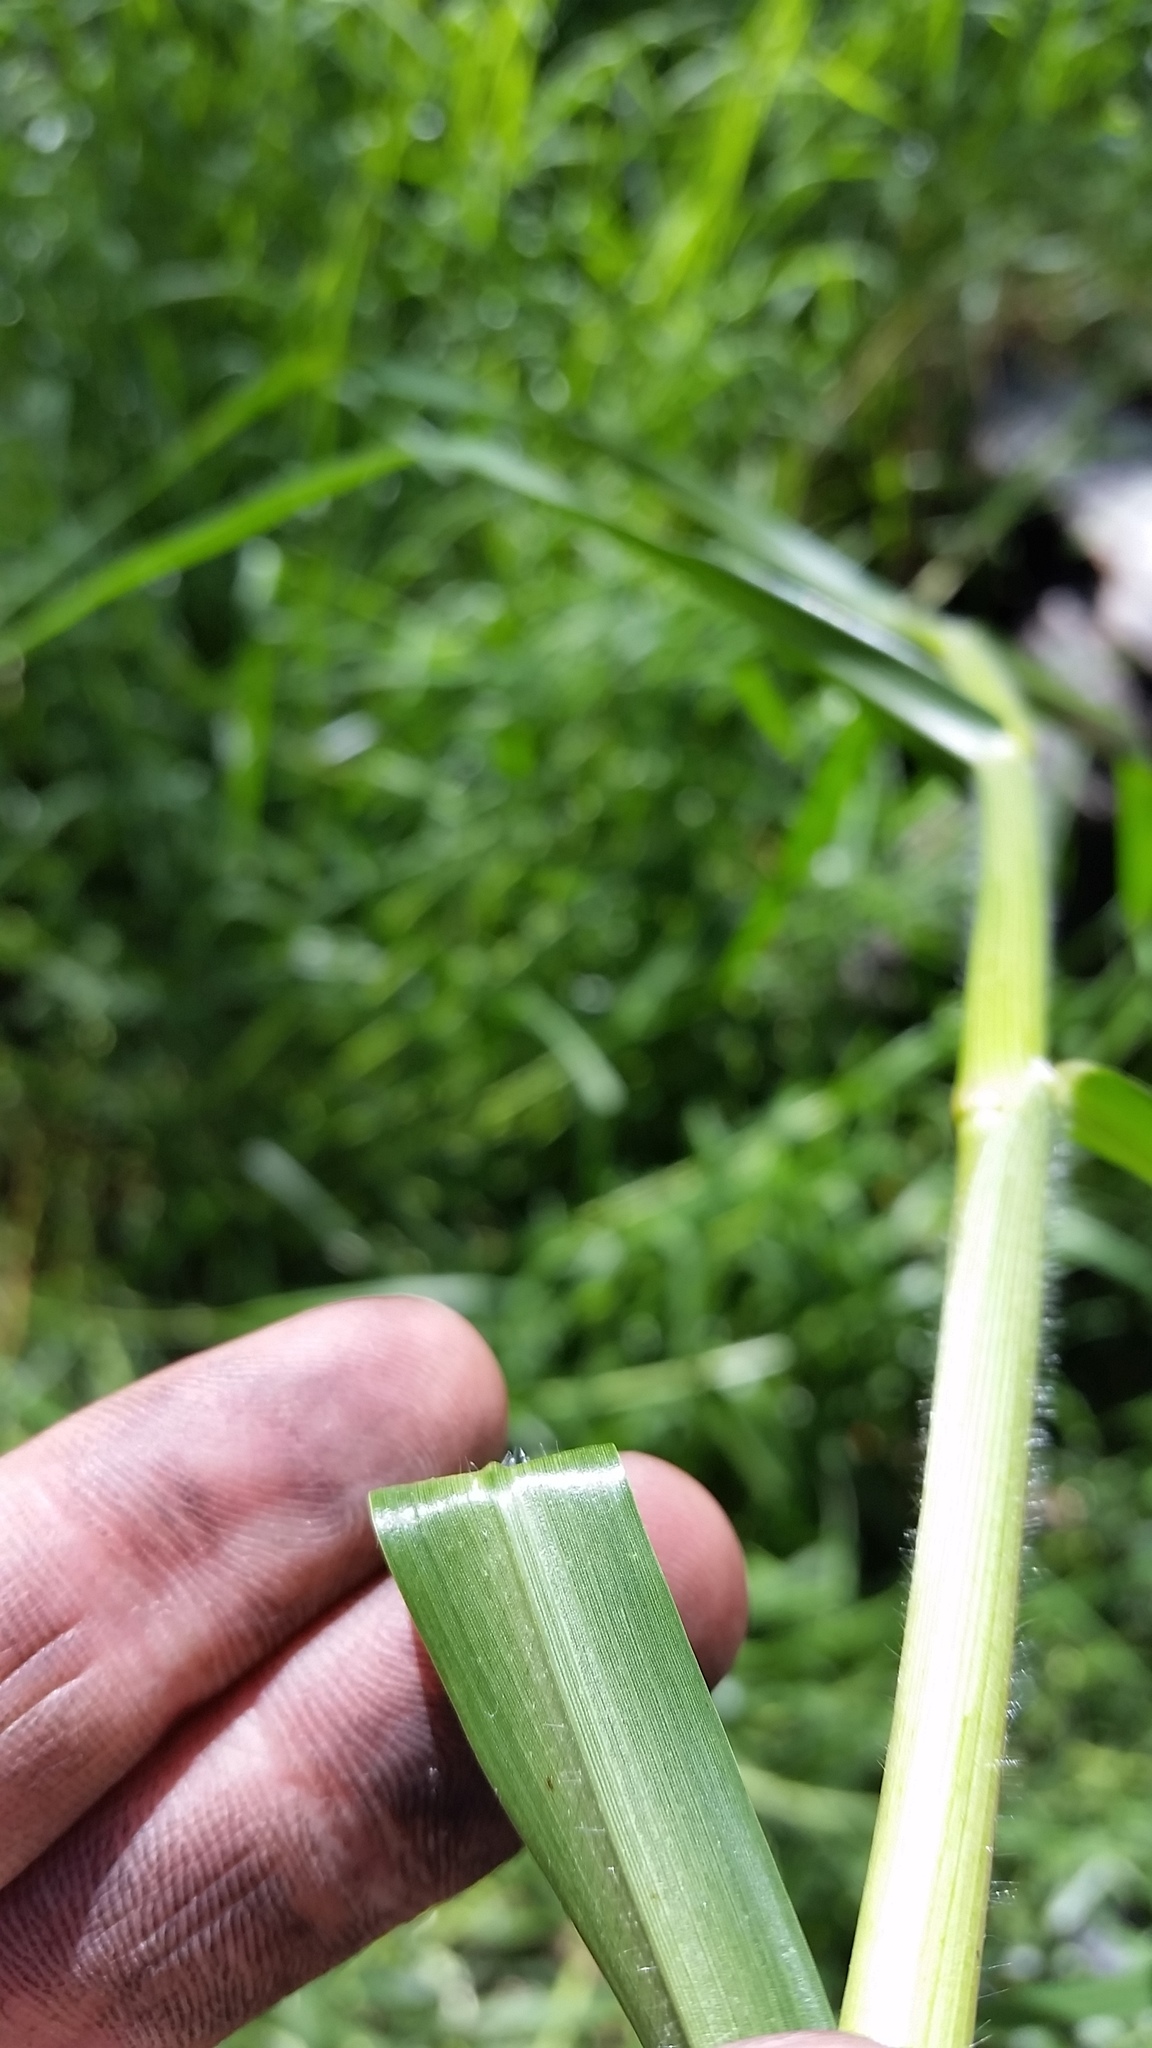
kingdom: Plantae
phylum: Tracheophyta
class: Liliopsida
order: Poales
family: Poaceae
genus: Cenchrus
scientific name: Cenchrus clandestinus
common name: Kikuyugrass
